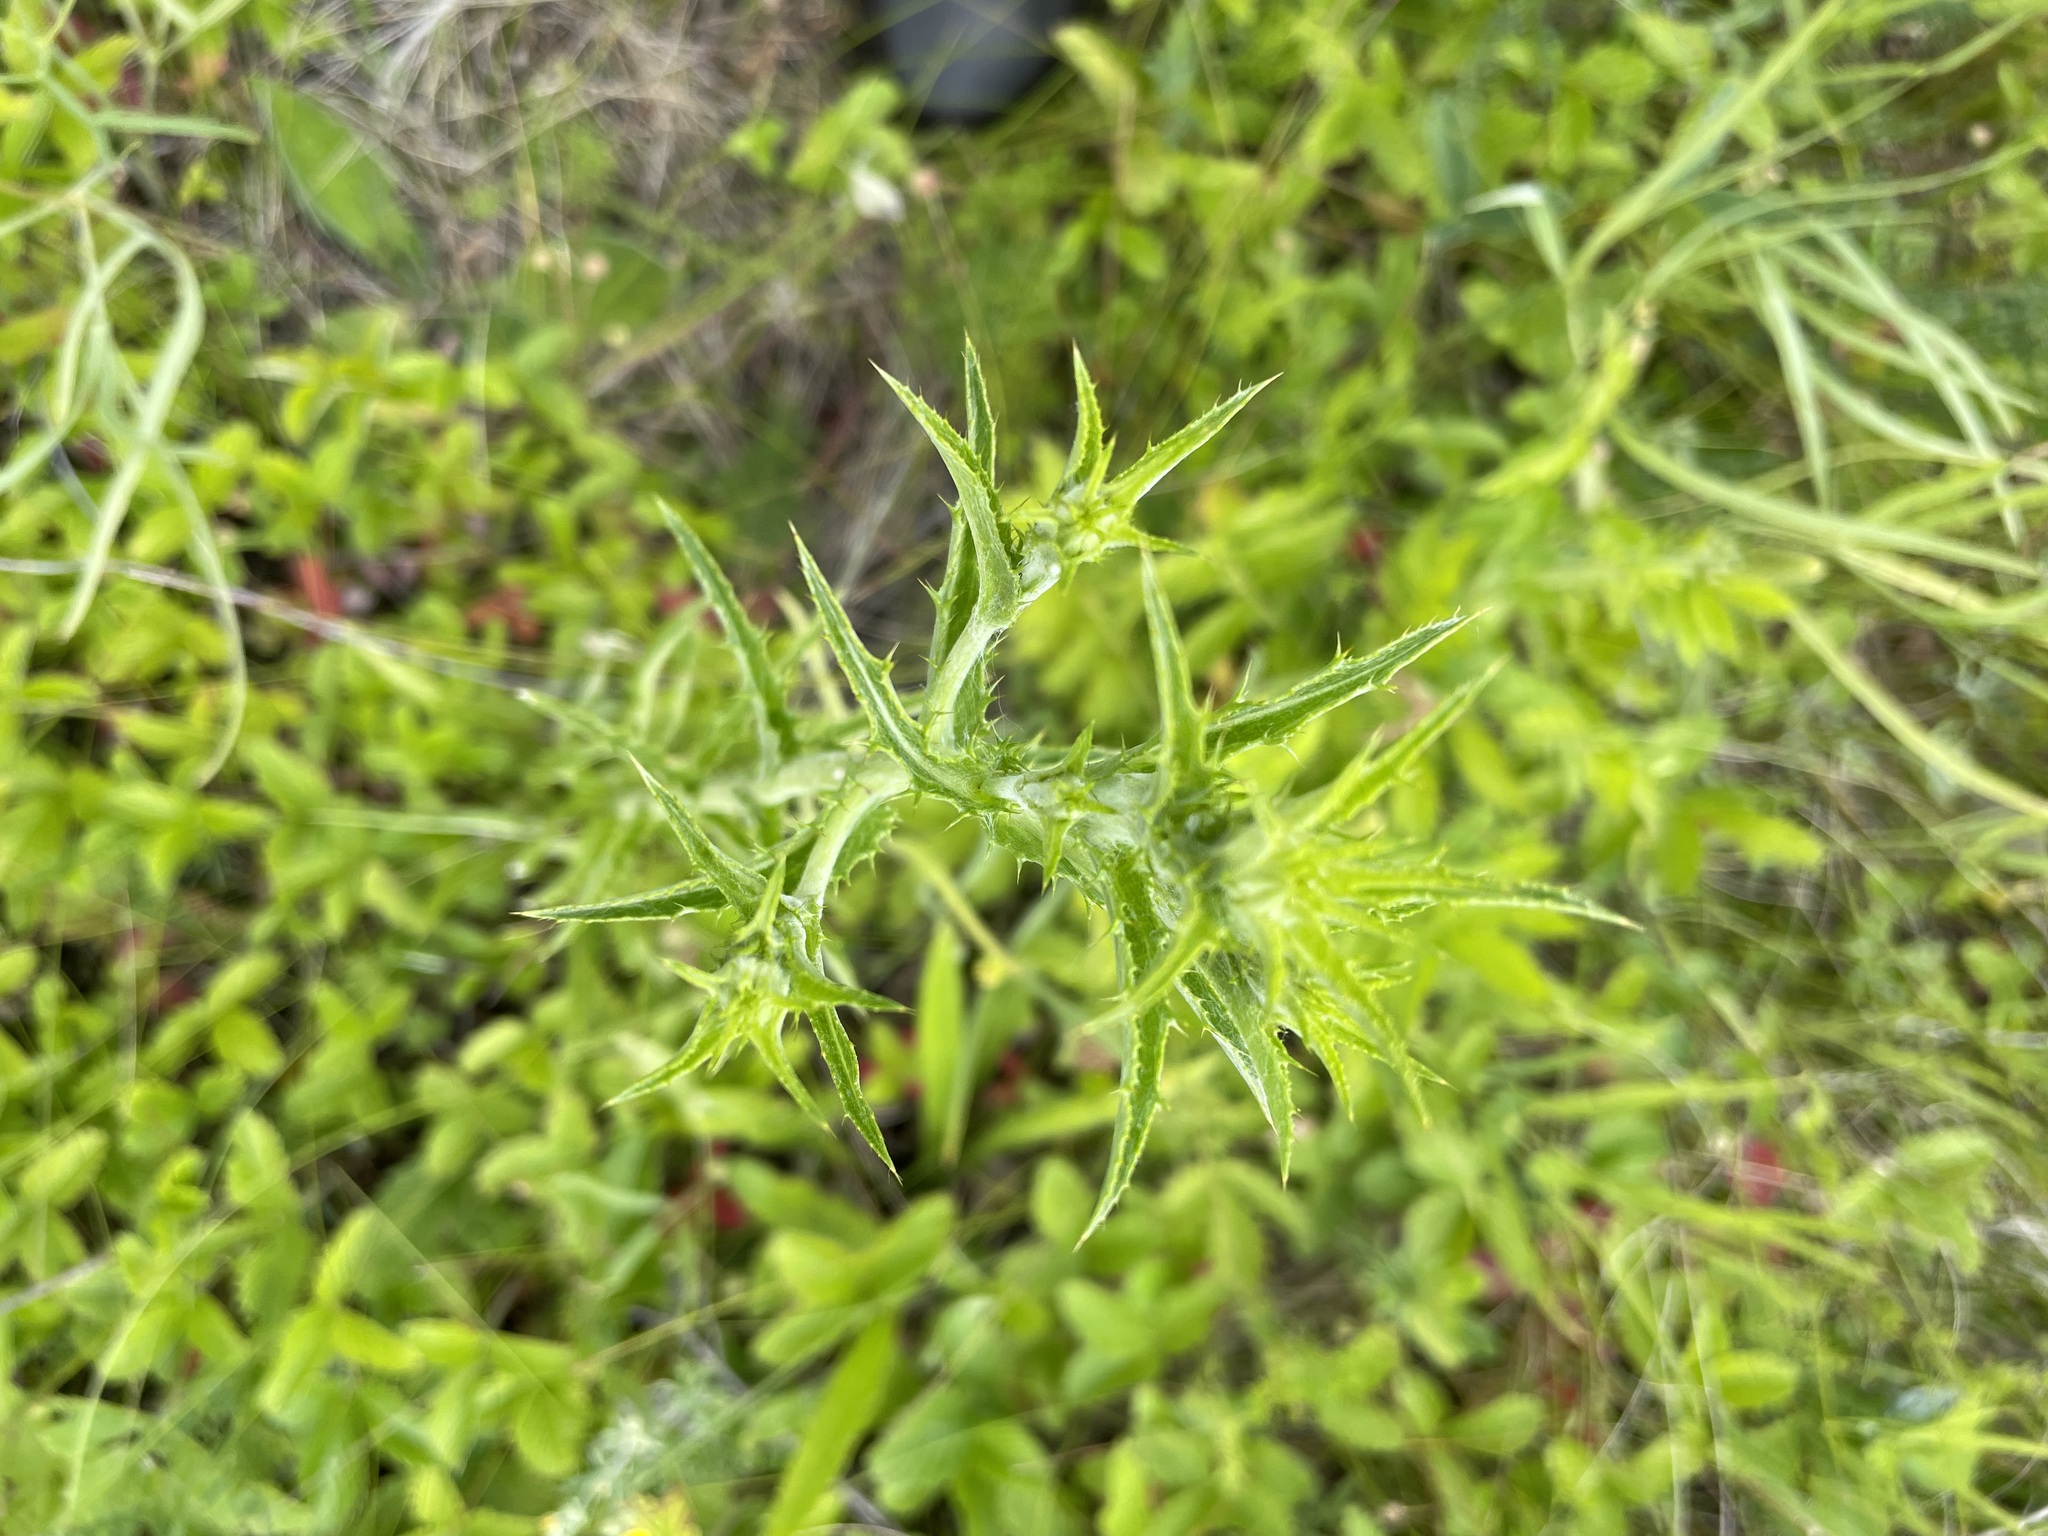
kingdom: Plantae
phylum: Tracheophyta
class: Magnoliopsida
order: Asterales
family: Asteraceae
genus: Carlina
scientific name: Carlina biebersteinii
